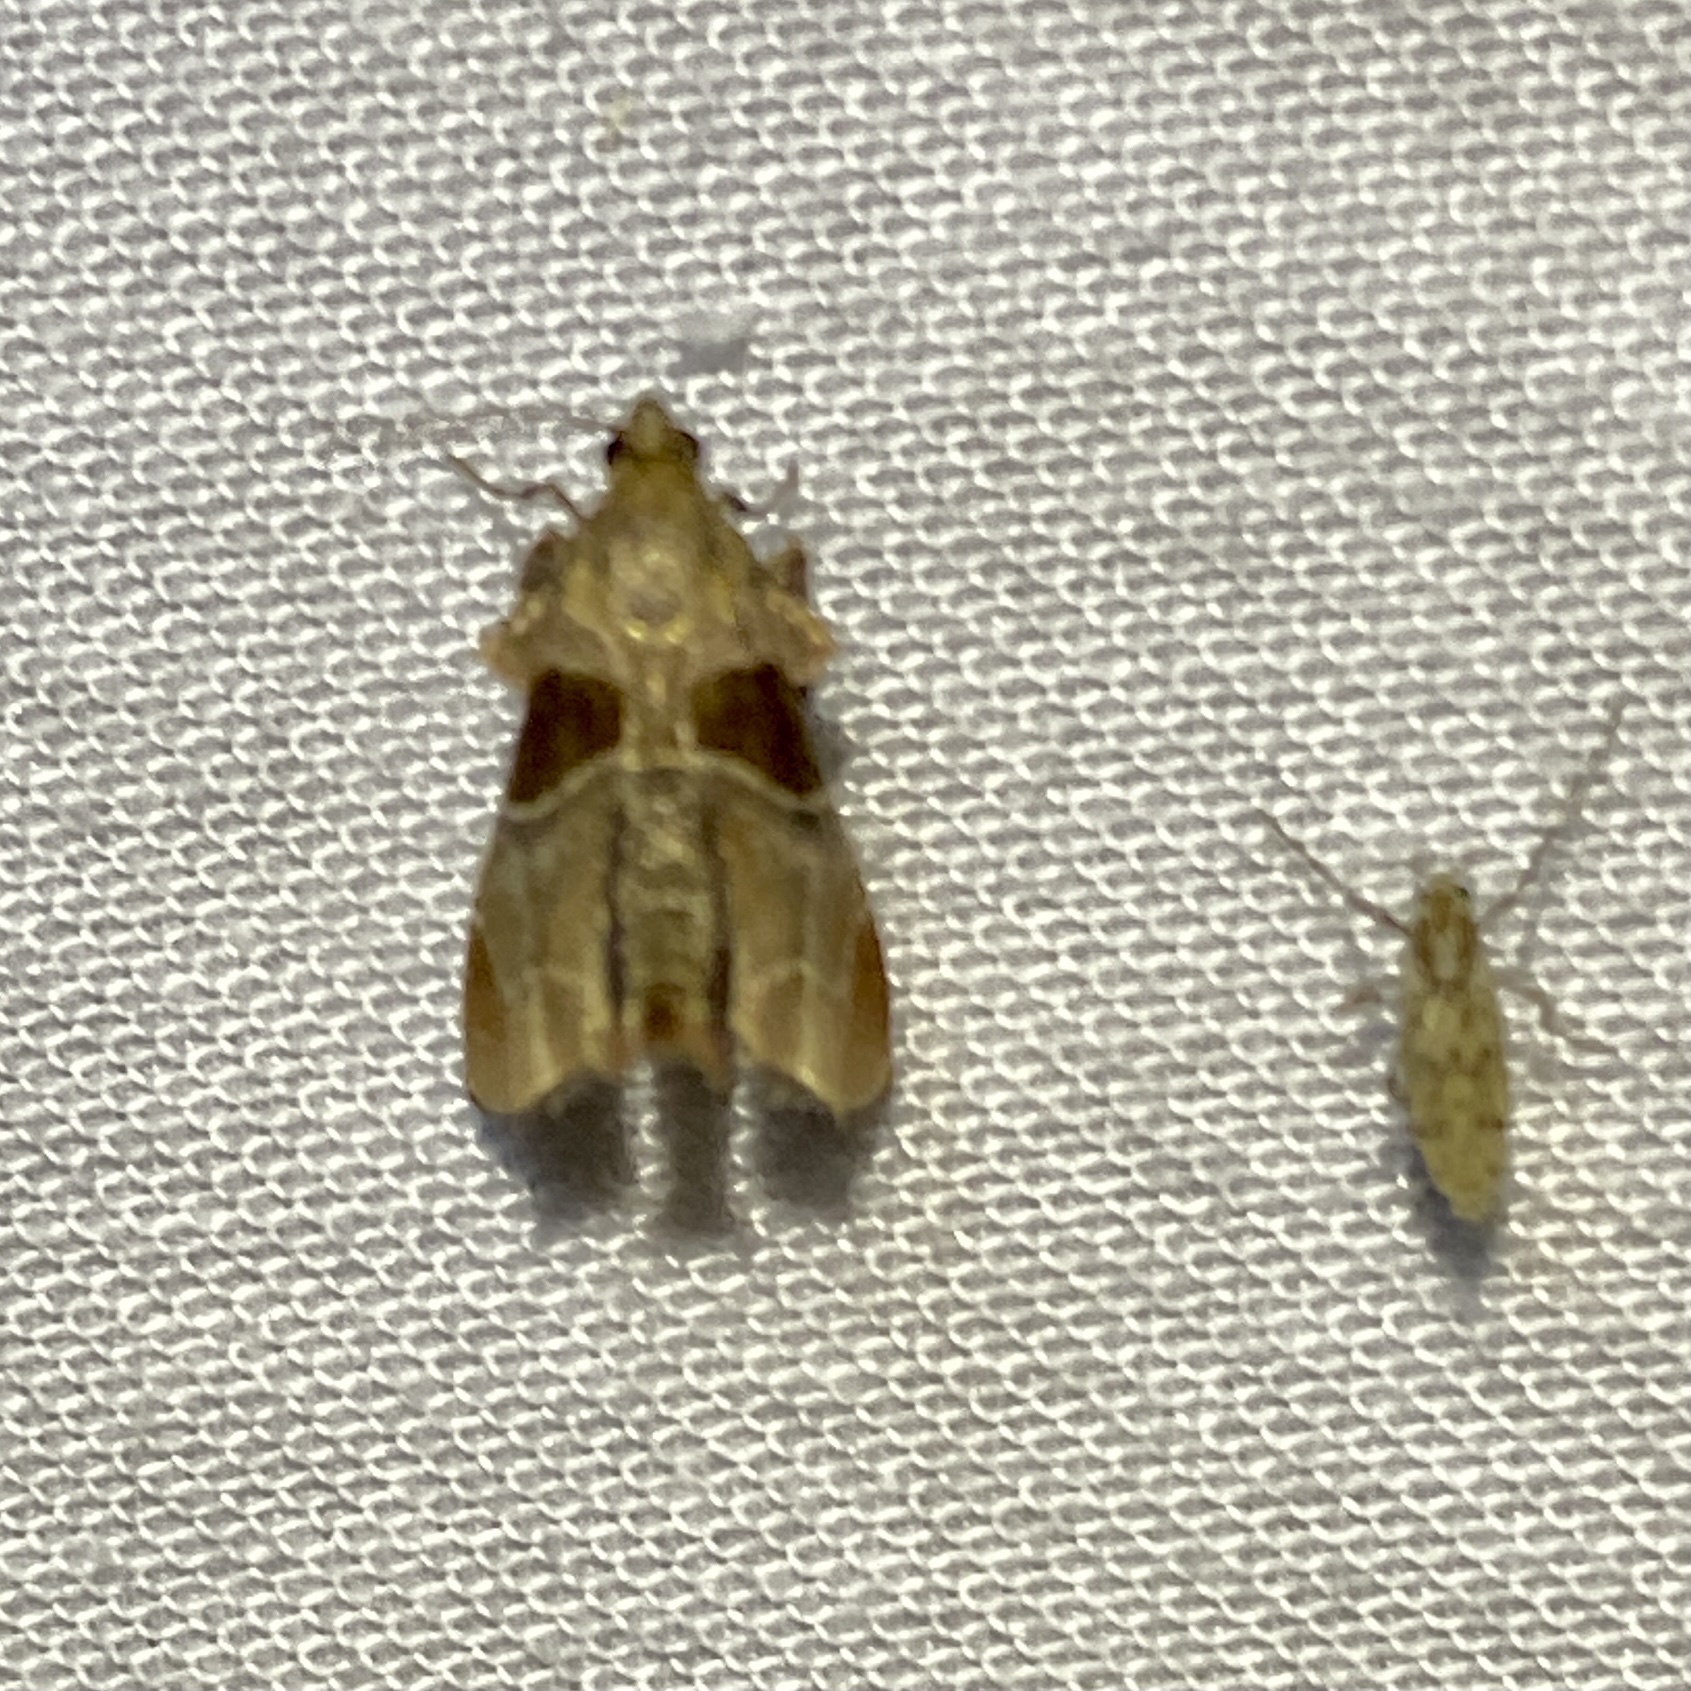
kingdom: Animalia
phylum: Arthropoda
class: Insecta
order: Lepidoptera
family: Pyralidae
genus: Tosale
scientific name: Tosale oviplagalis
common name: Dimorphic tosale moth
